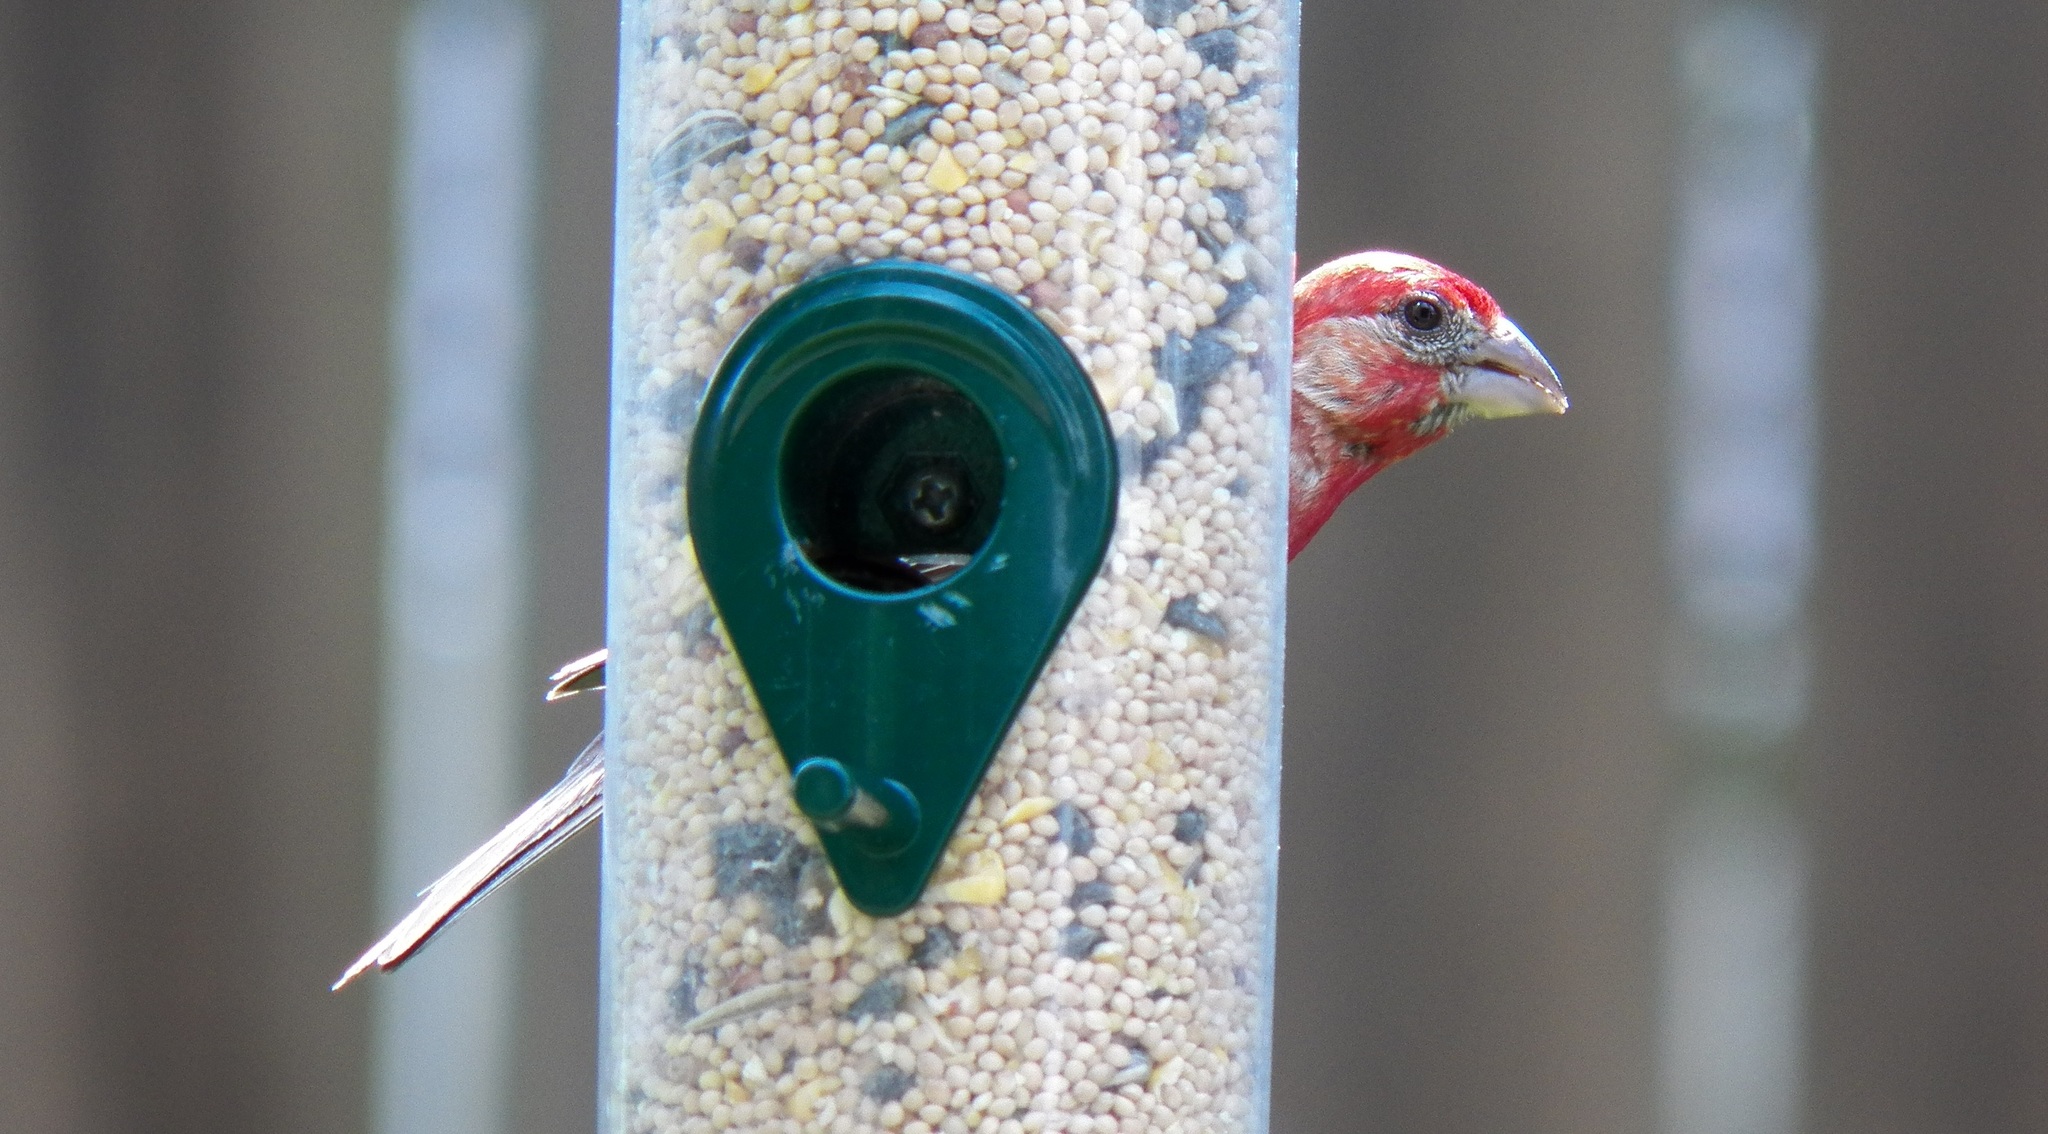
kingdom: Animalia
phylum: Chordata
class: Aves
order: Passeriformes
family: Fringillidae
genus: Haemorhous
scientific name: Haemorhous mexicanus
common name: House finch
